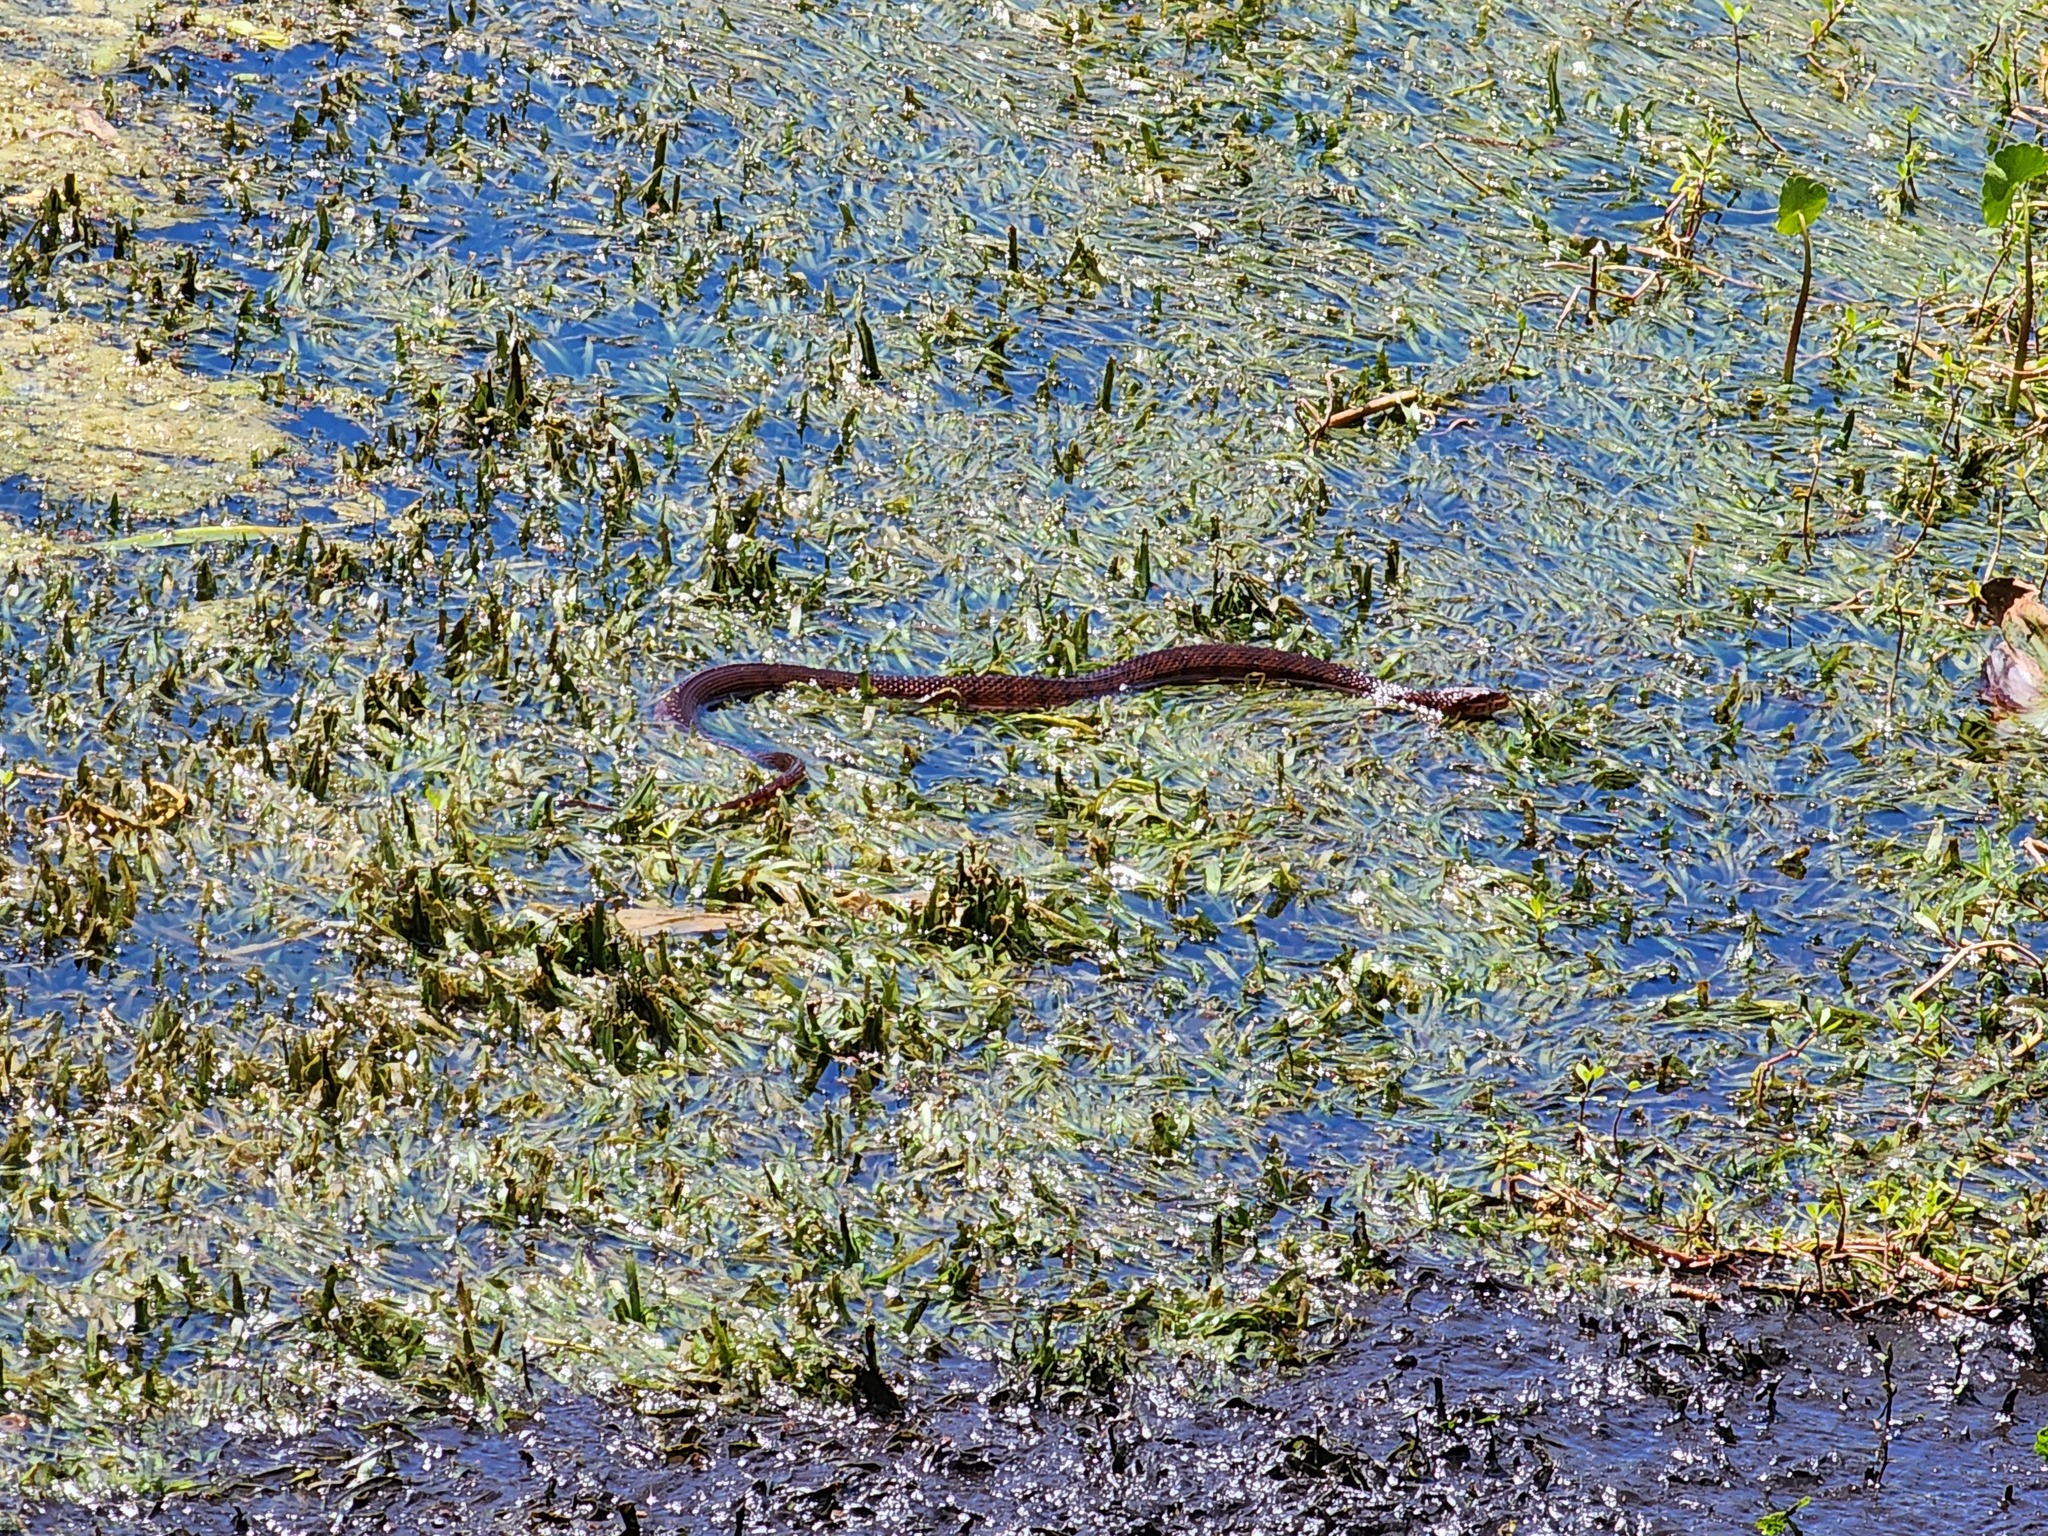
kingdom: Animalia
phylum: Chordata
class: Squamata
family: Colubridae
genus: Nerodia
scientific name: Nerodia fasciata
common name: Southern water snake
